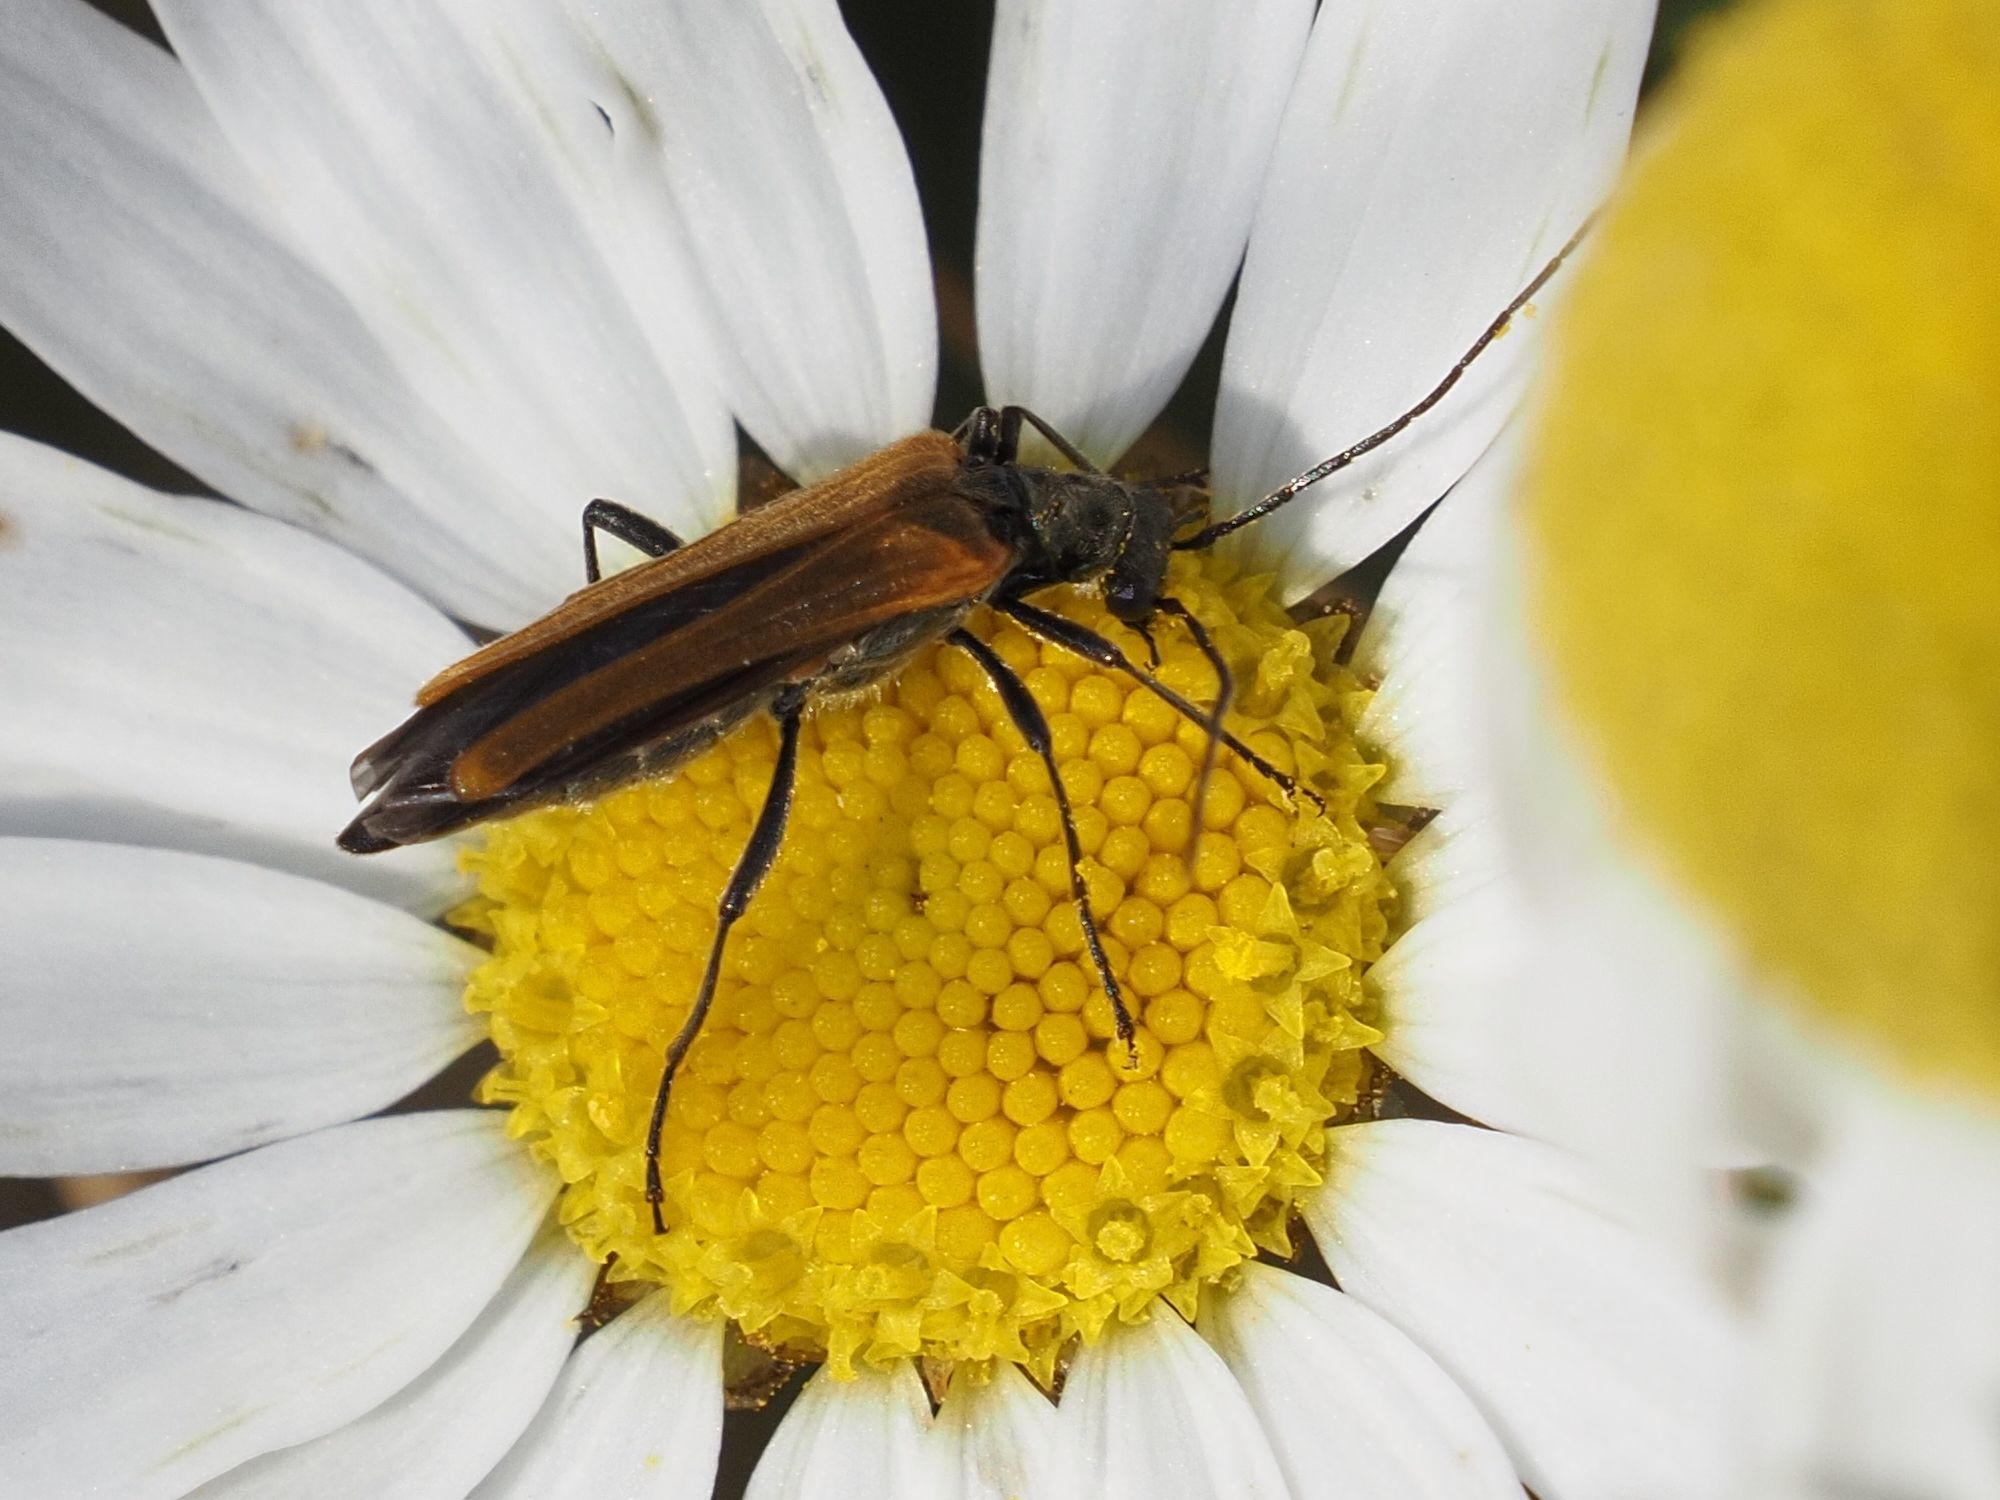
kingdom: Animalia
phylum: Arthropoda
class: Insecta
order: Coleoptera
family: Oedemeridae
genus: Oedemera
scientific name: Oedemera femorata
